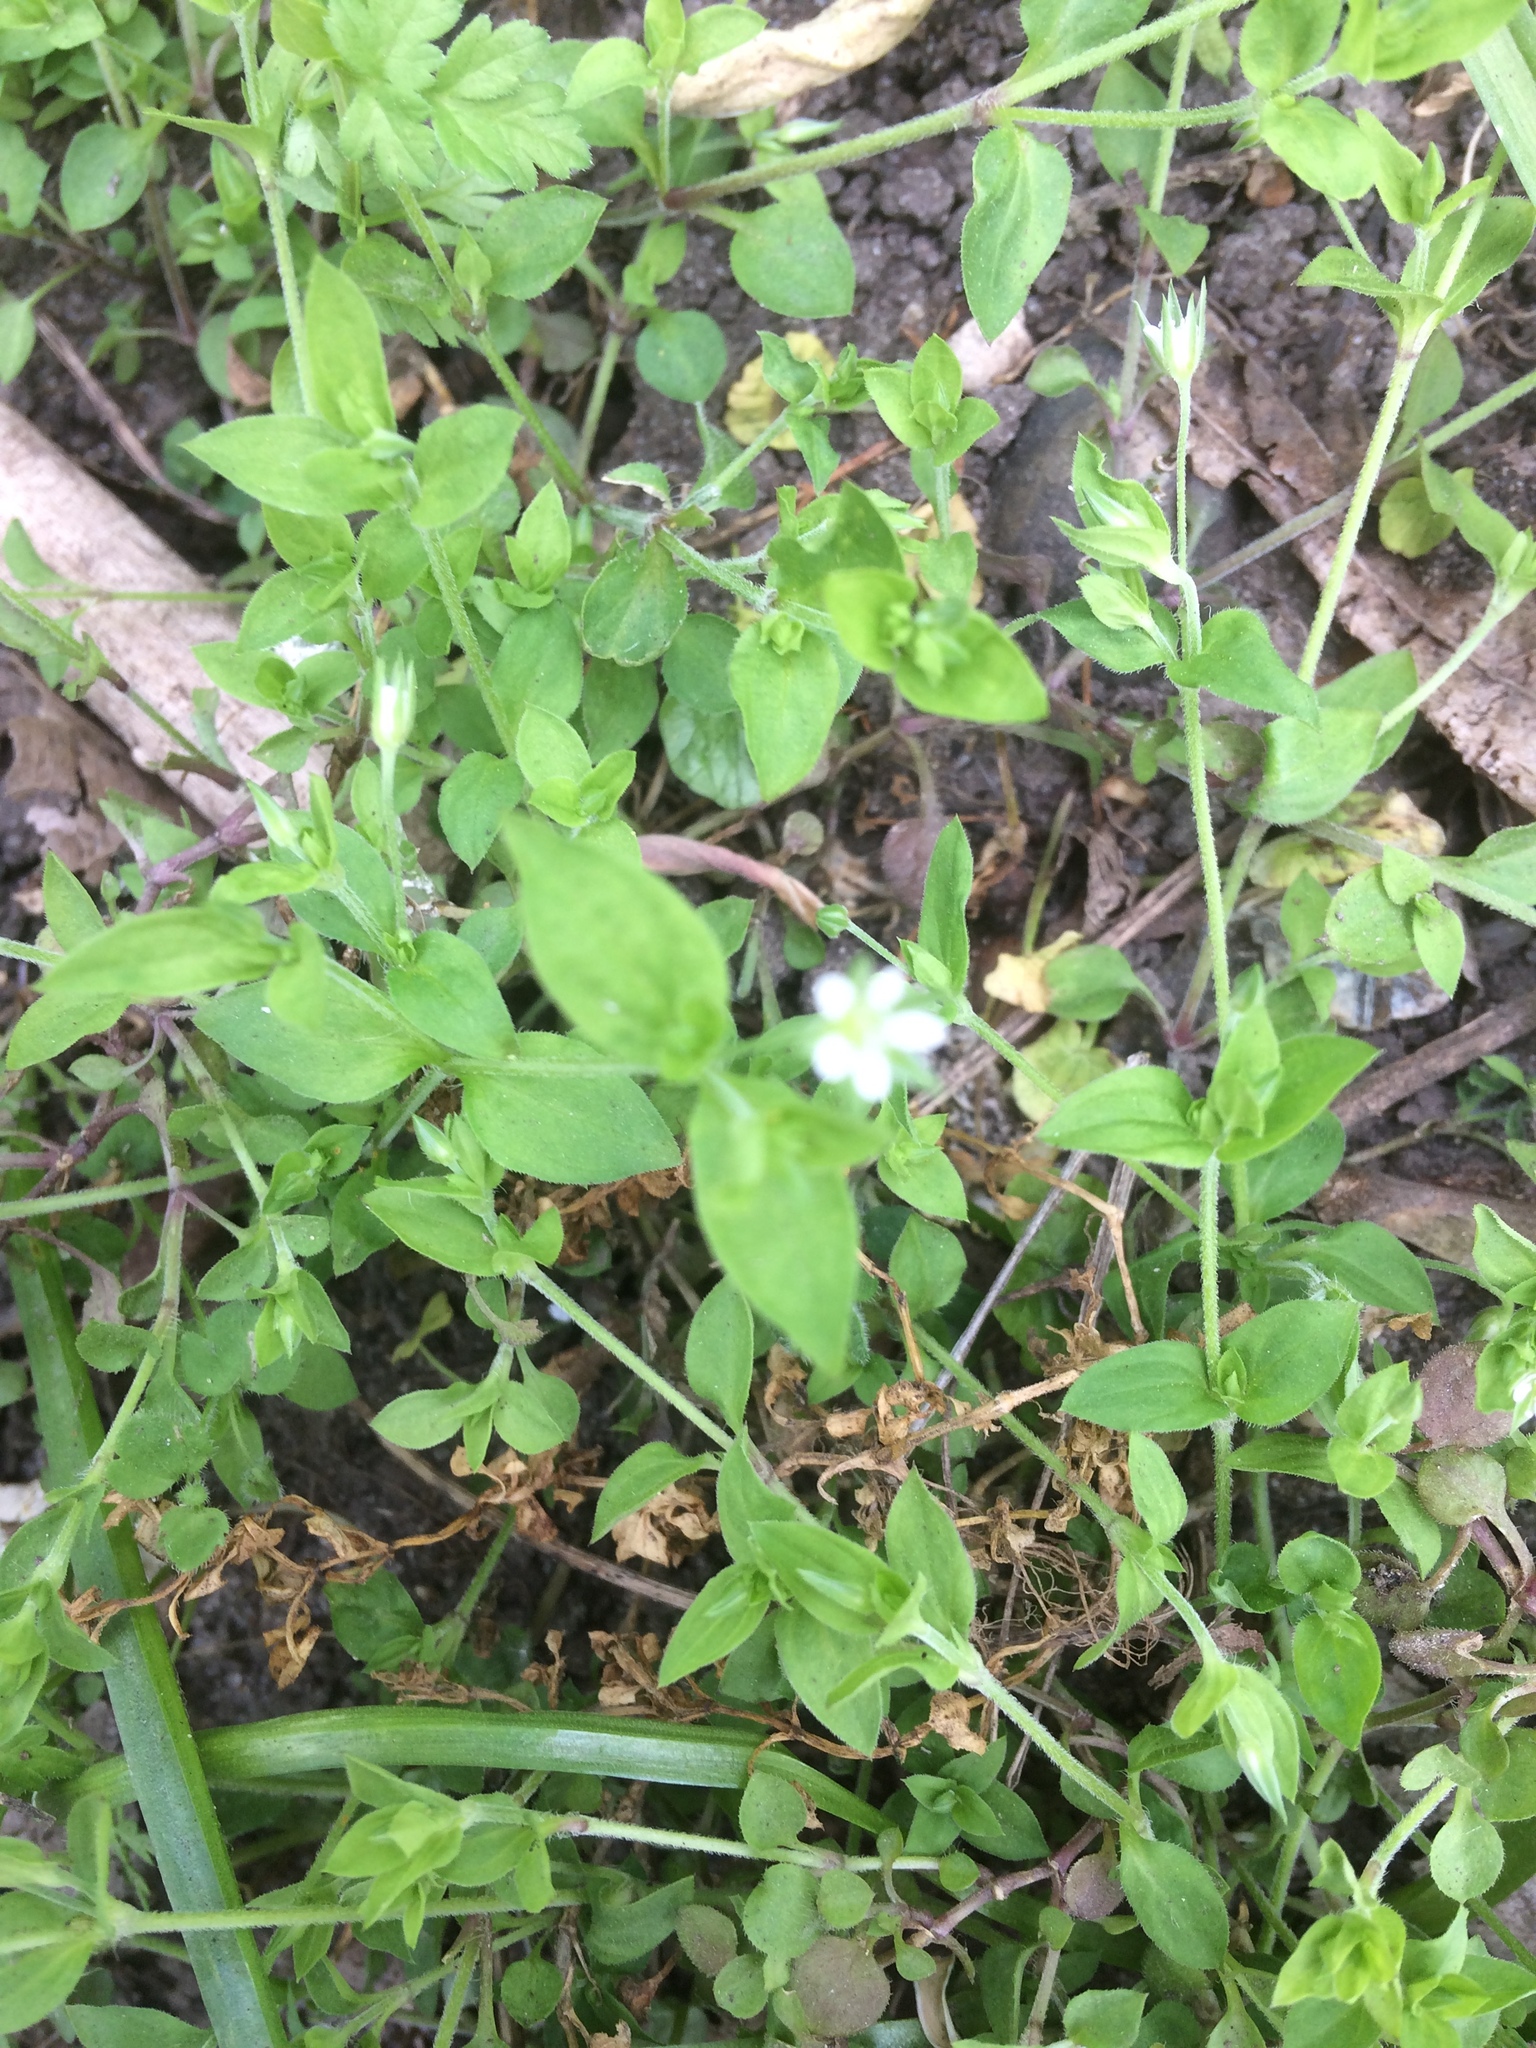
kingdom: Plantae
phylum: Tracheophyta
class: Magnoliopsida
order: Caryophyllales
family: Caryophyllaceae
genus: Moehringia
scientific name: Moehringia trinervia
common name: Three-nerved sandwort
